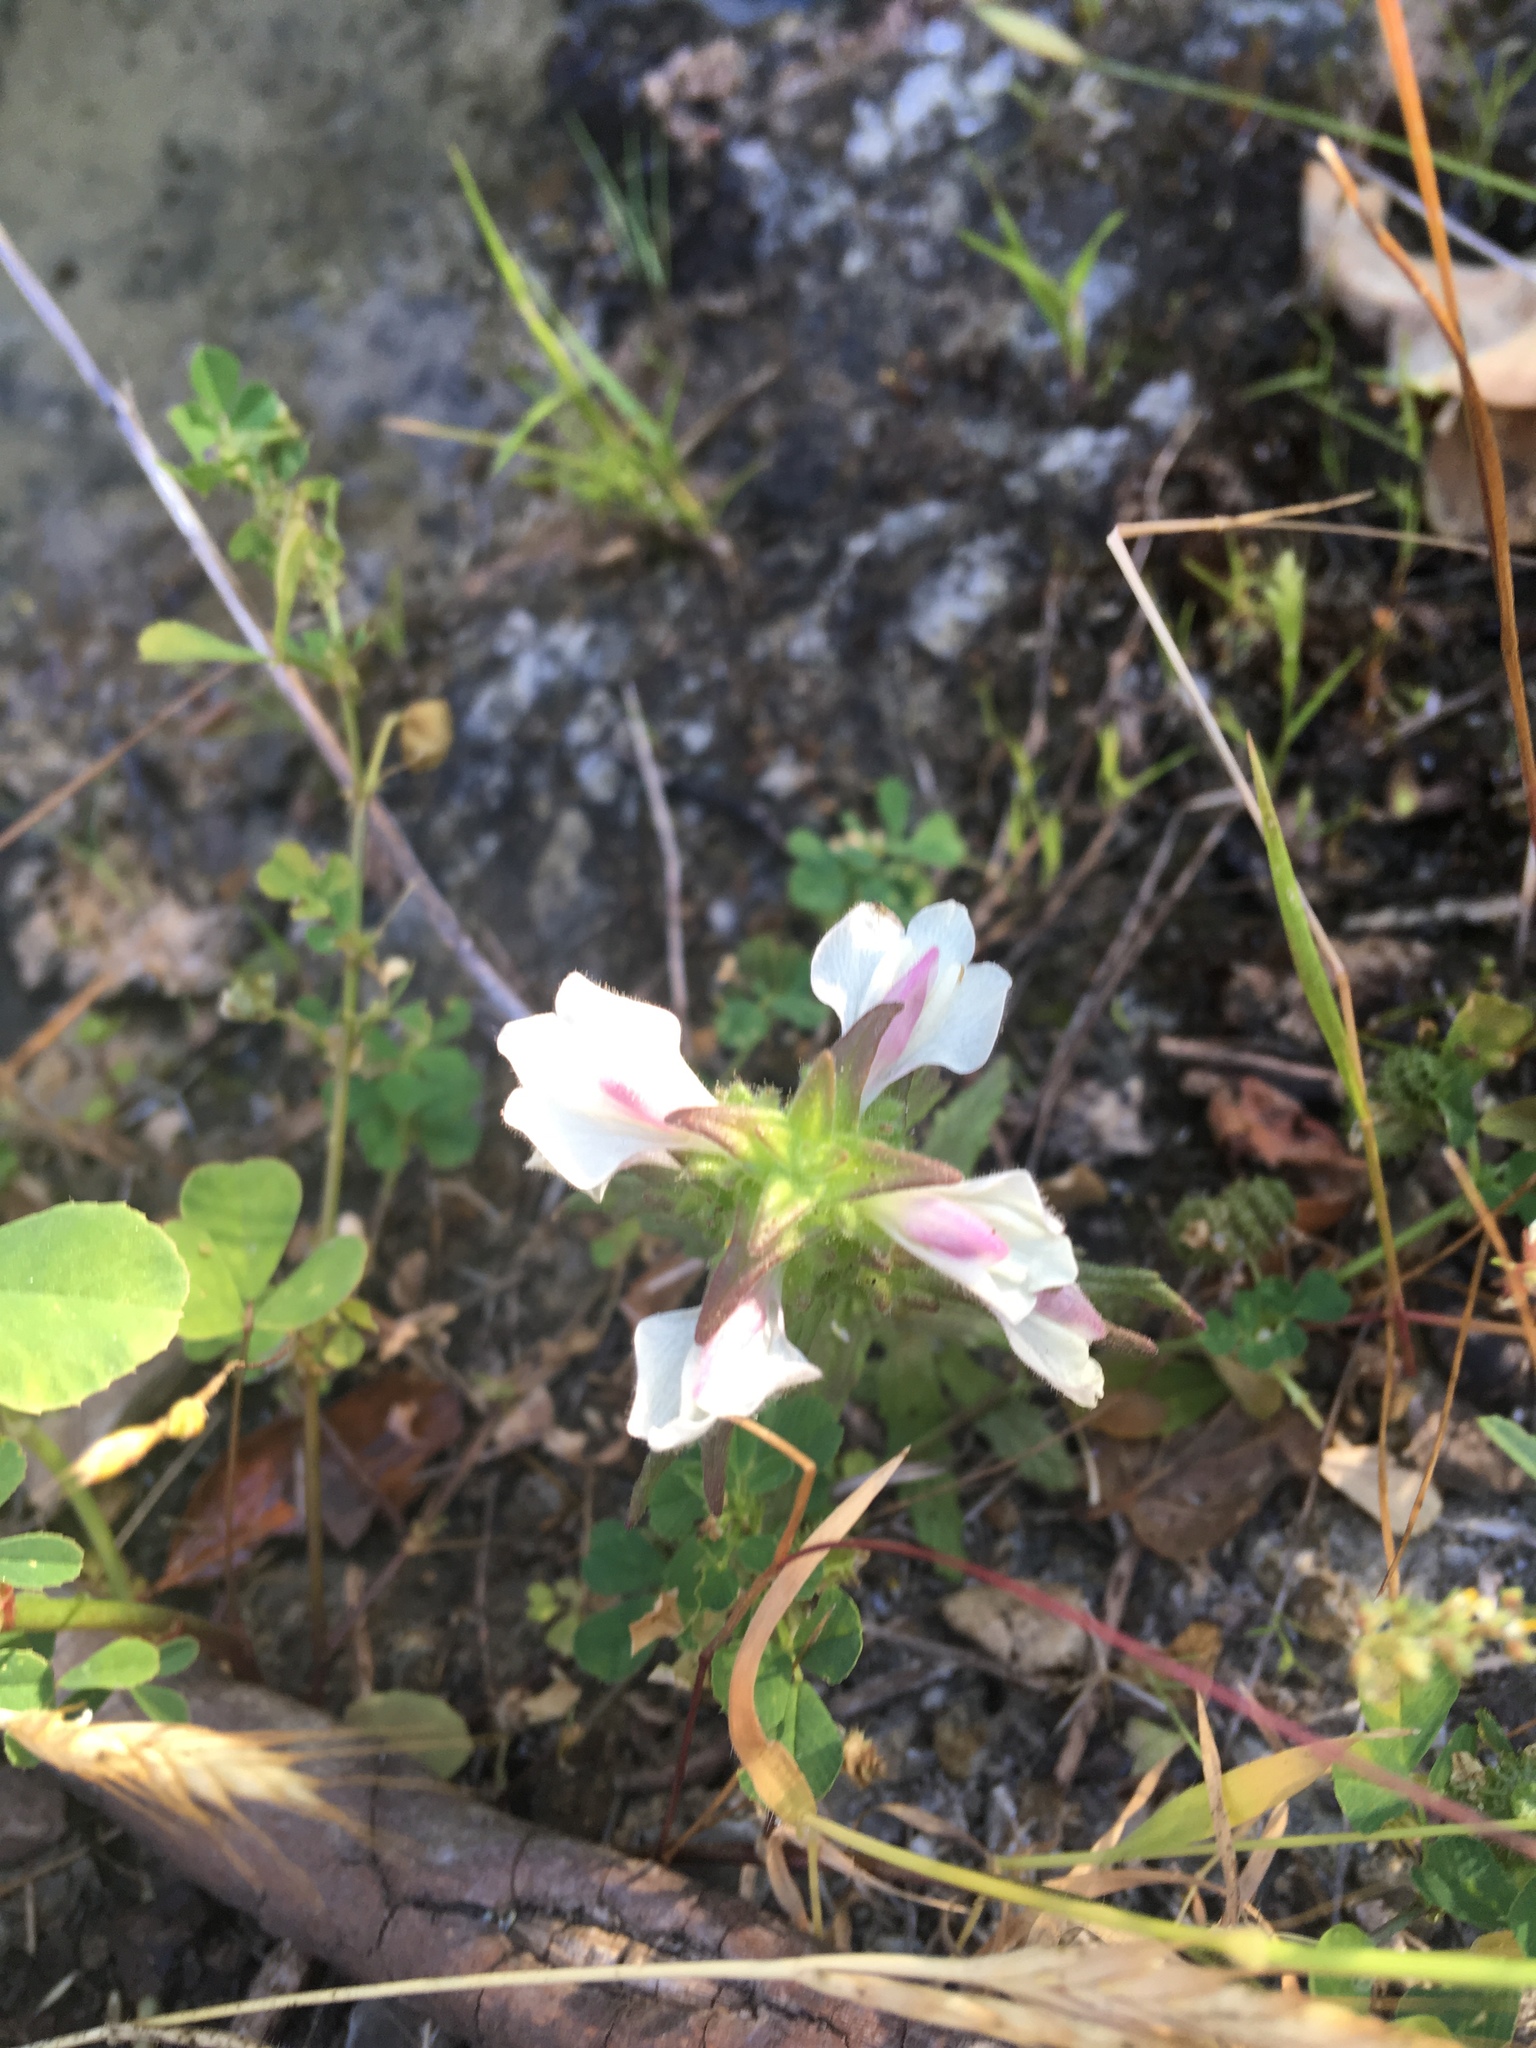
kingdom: Plantae
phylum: Tracheophyta
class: Magnoliopsida
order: Lamiales
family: Orobanchaceae
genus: Bellardia
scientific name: Bellardia trixago
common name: Mediterranean lineseed
